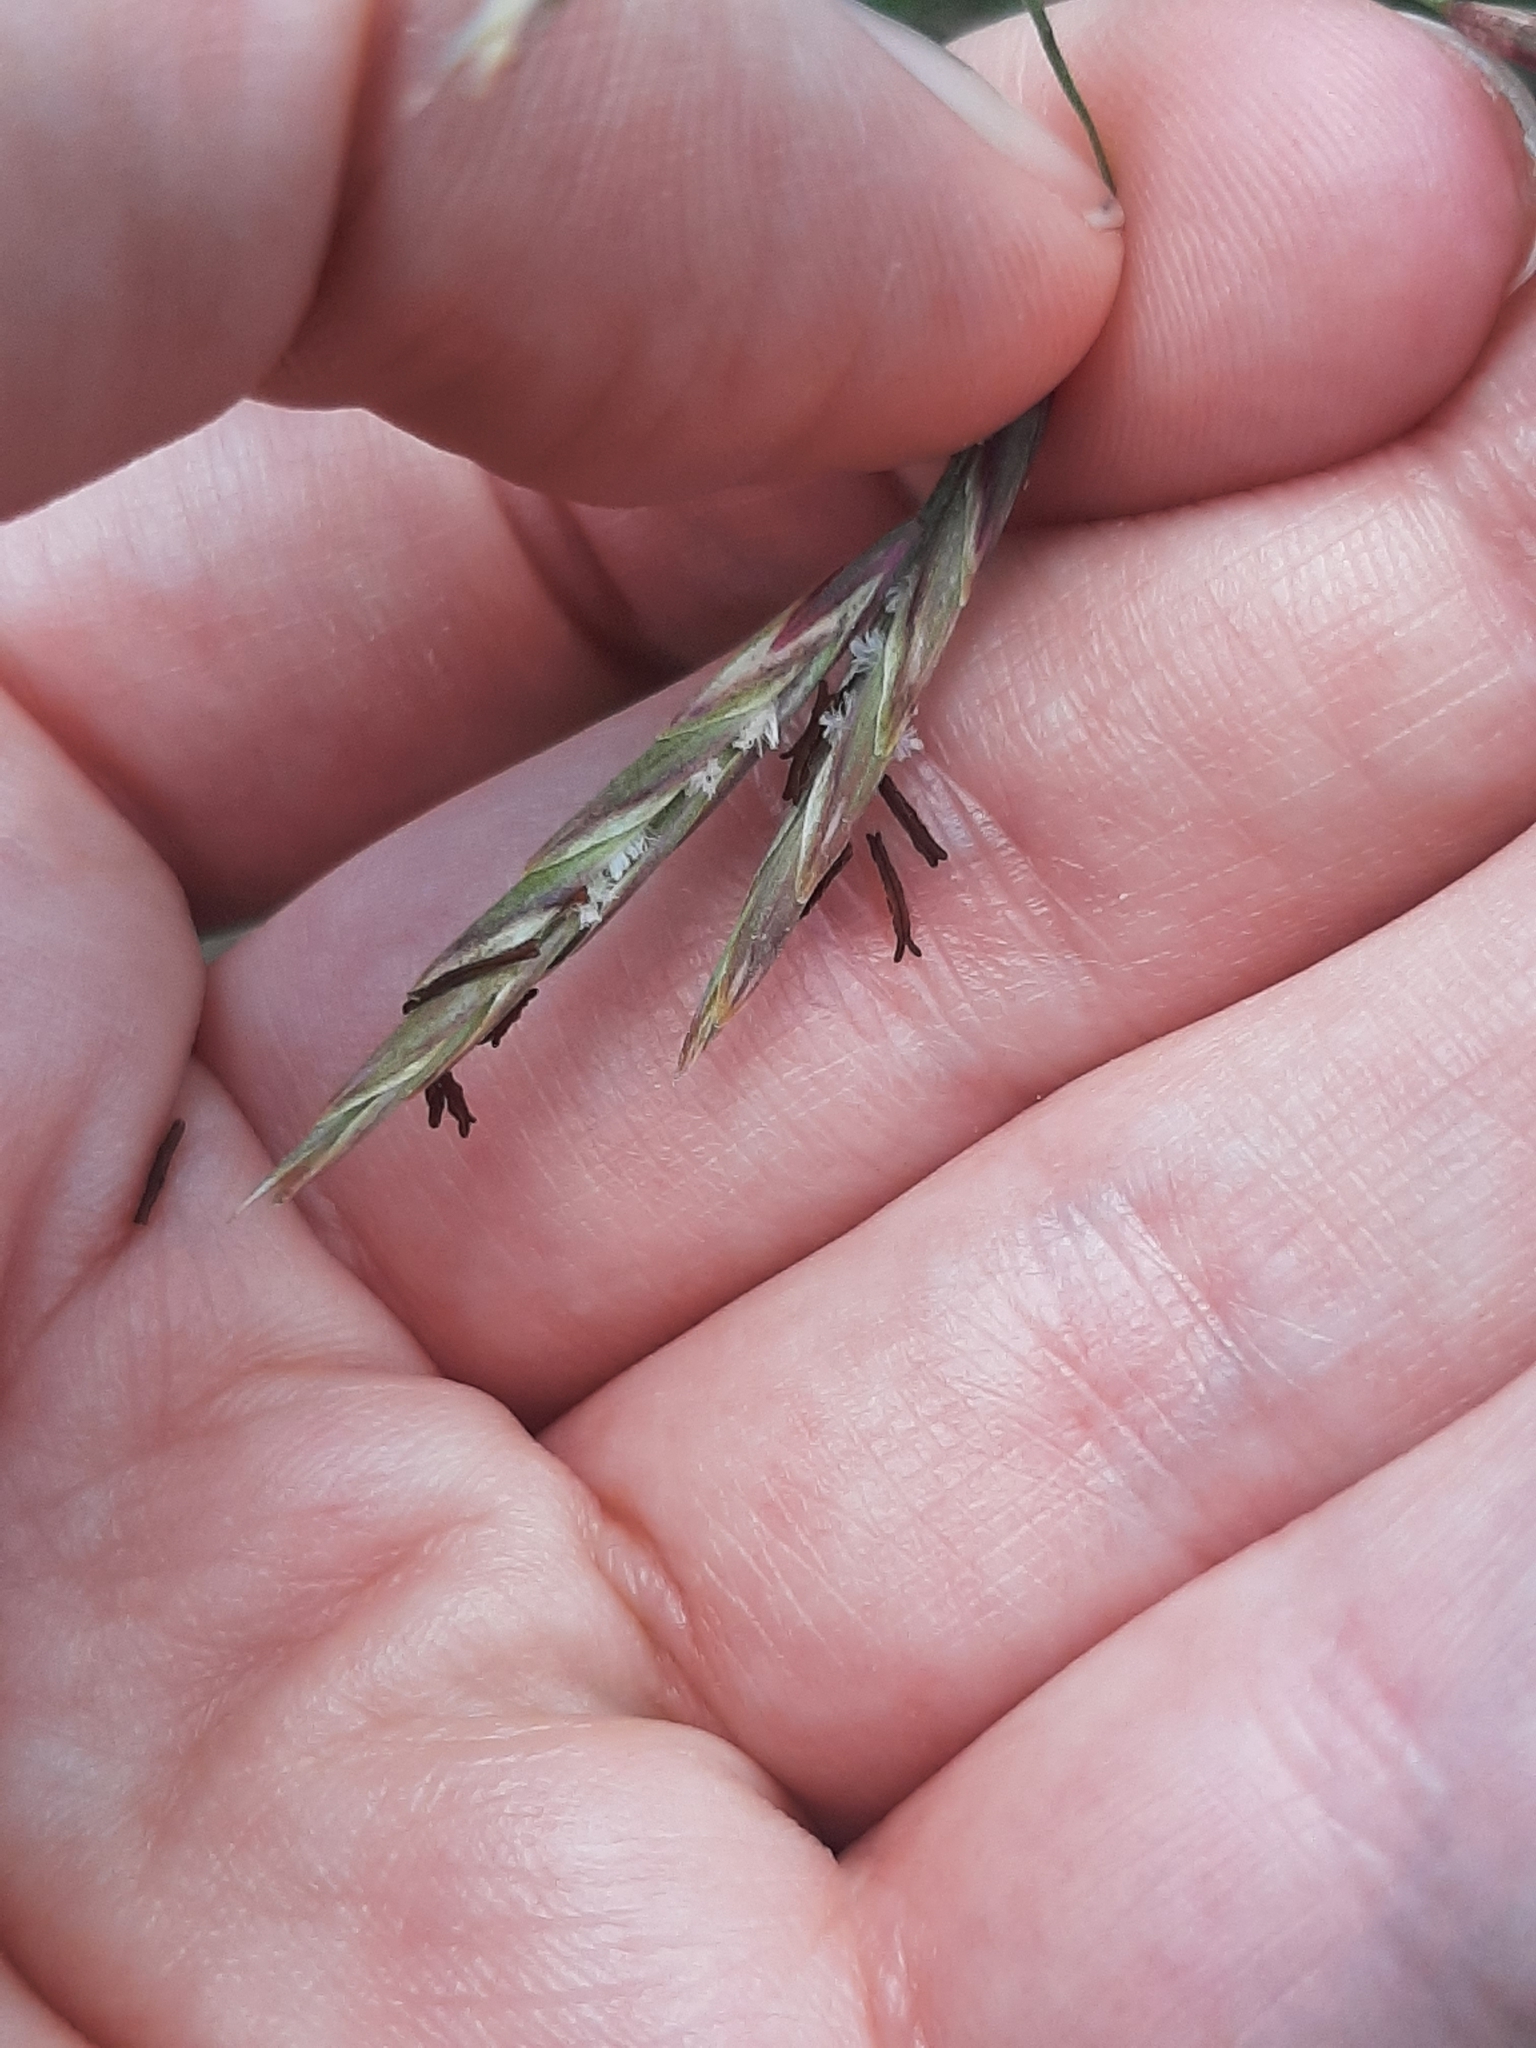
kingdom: Plantae
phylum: Tracheophyta
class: Liliopsida
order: Poales
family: Poaceae
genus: Bromus
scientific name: Bromus inermis
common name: Smooth brome
